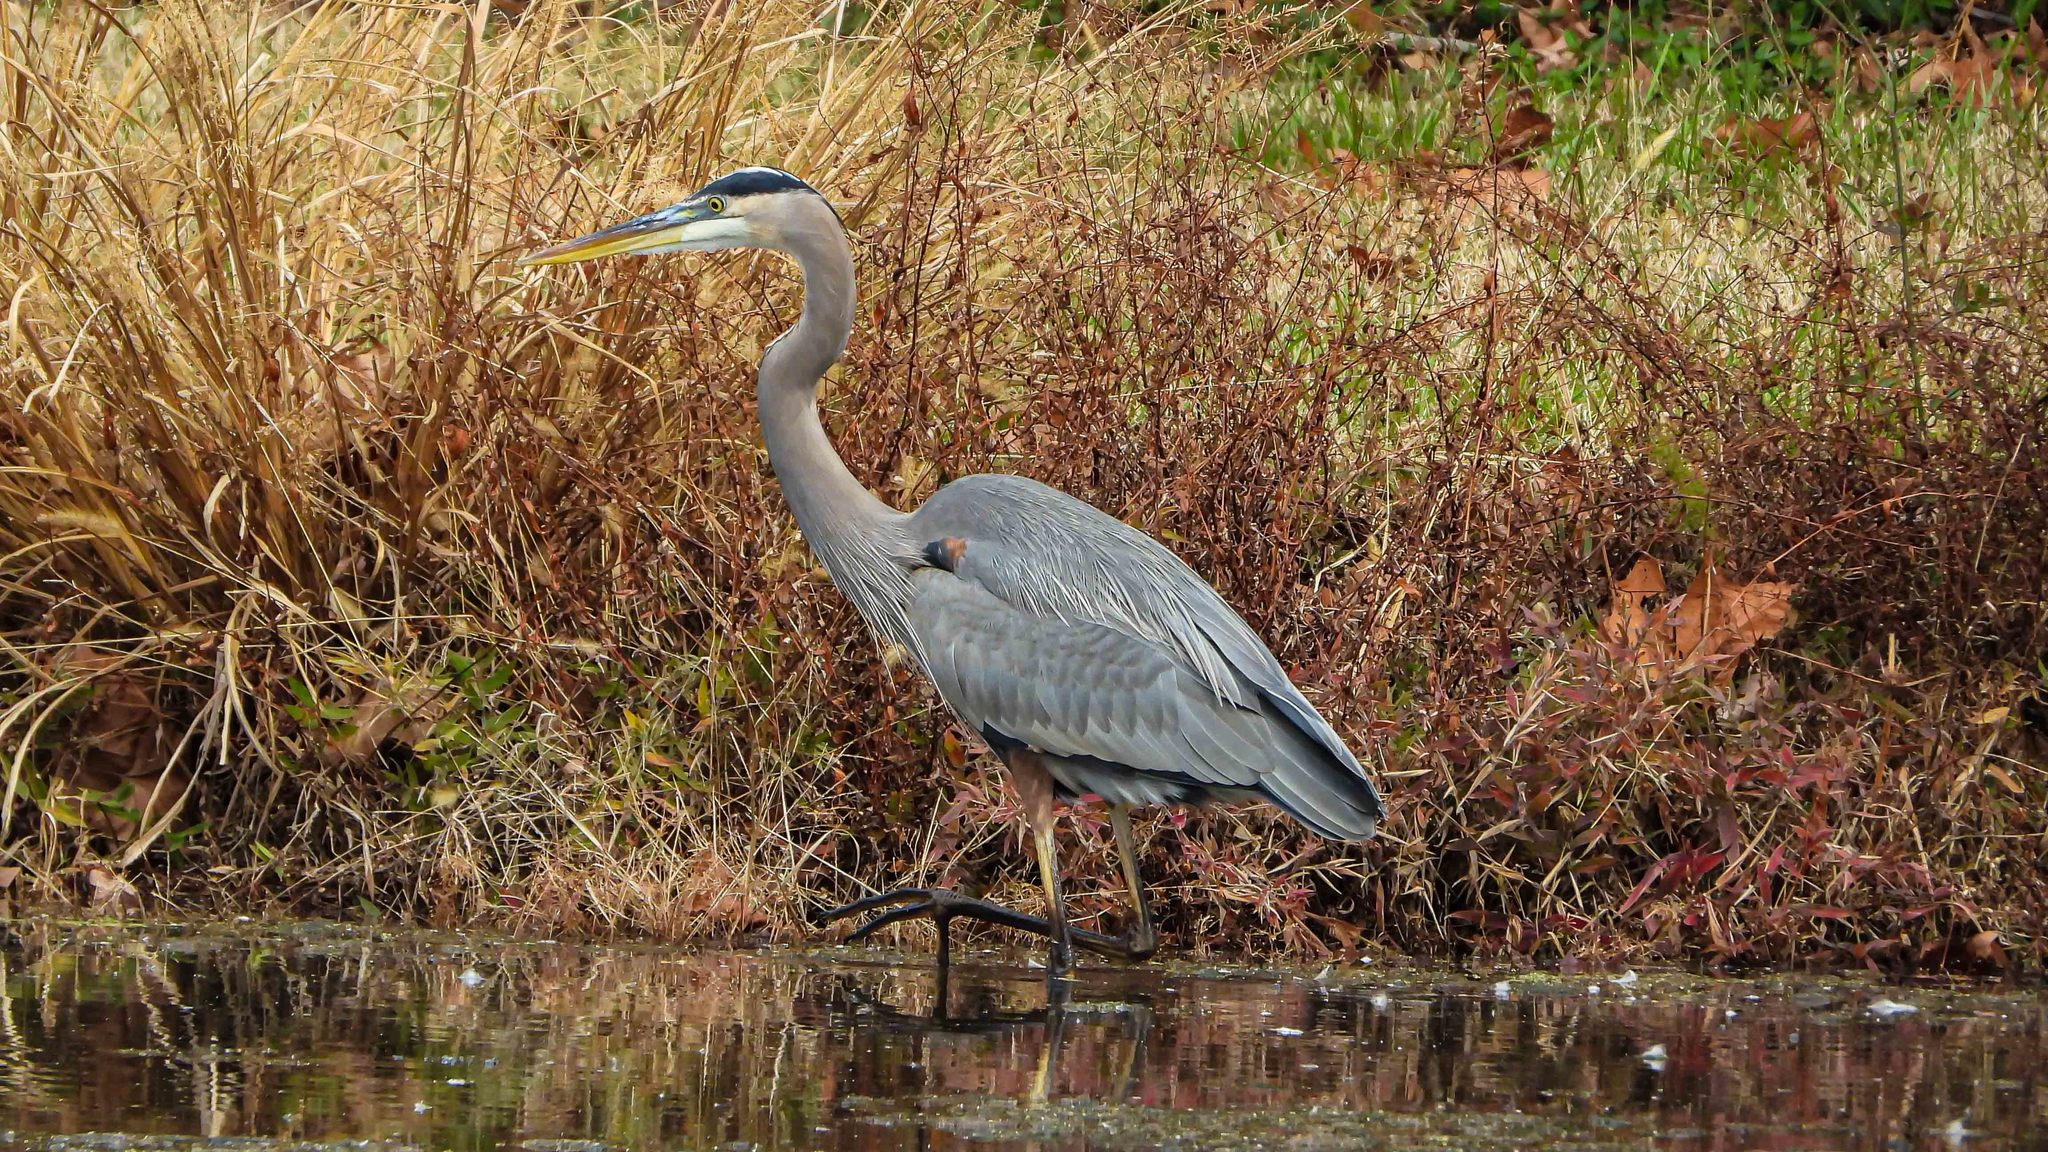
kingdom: Animalia
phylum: Chordata
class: Aves
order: Pelecaniformes
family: Ardeidae
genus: Ardea
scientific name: Ardea herodias
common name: Great blue heron
